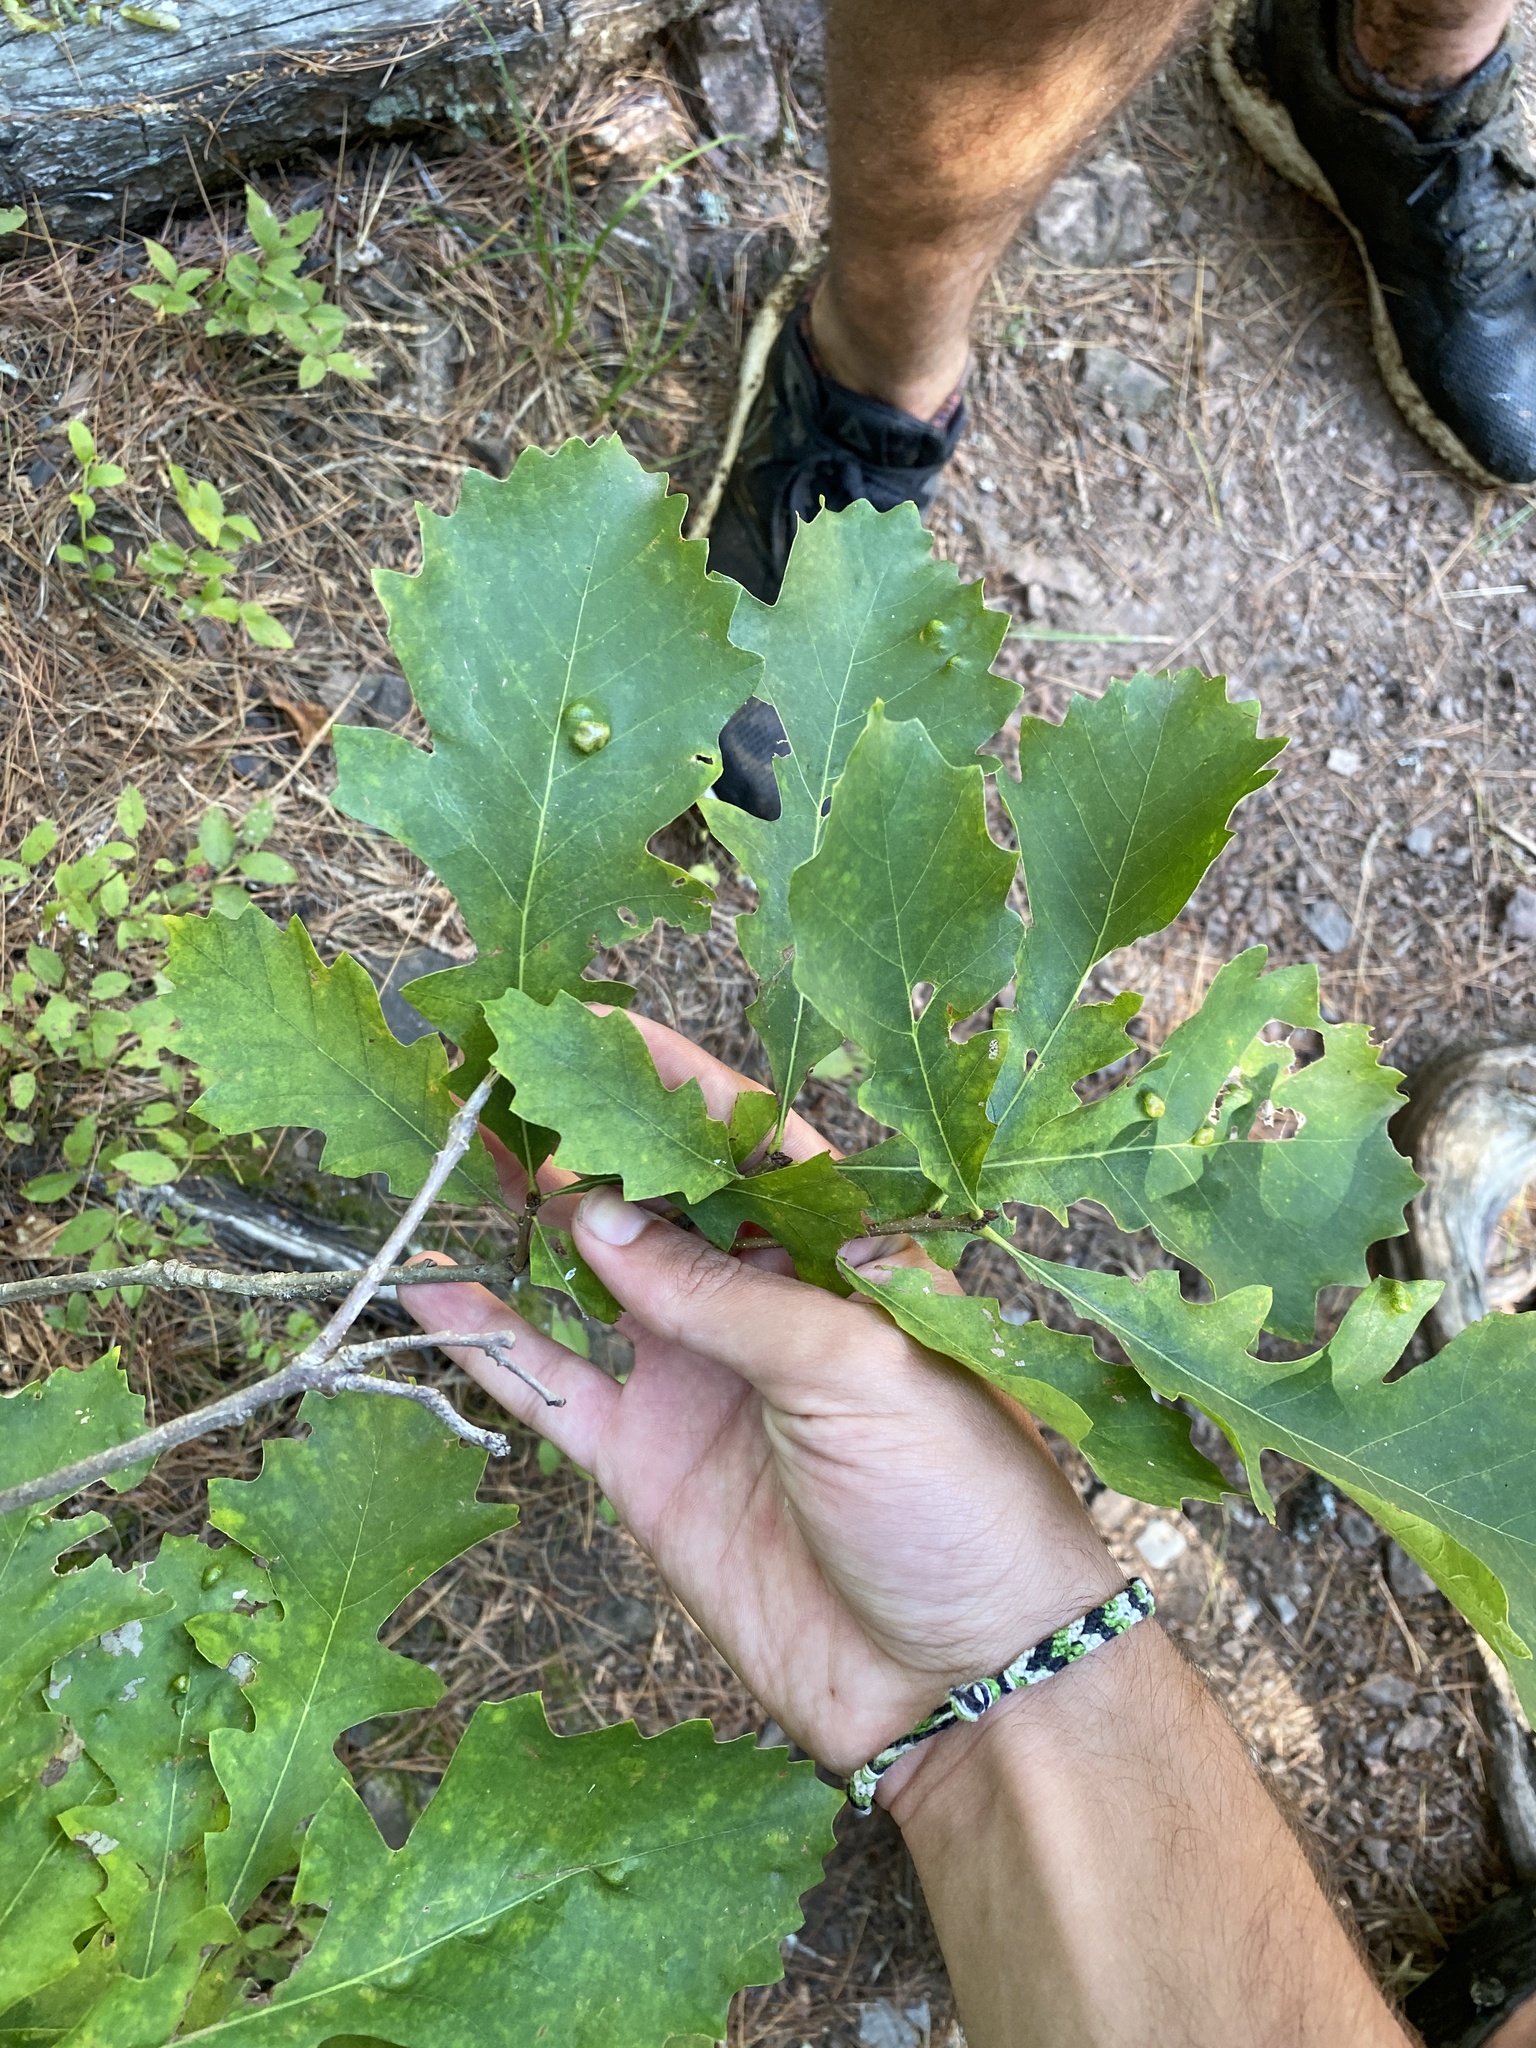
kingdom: Plantae
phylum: Tracheophyta
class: Magnoliopsida
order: Fagales
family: Fagaceae
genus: Quercus
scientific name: Quercus macrocarpa
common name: Bur oak
